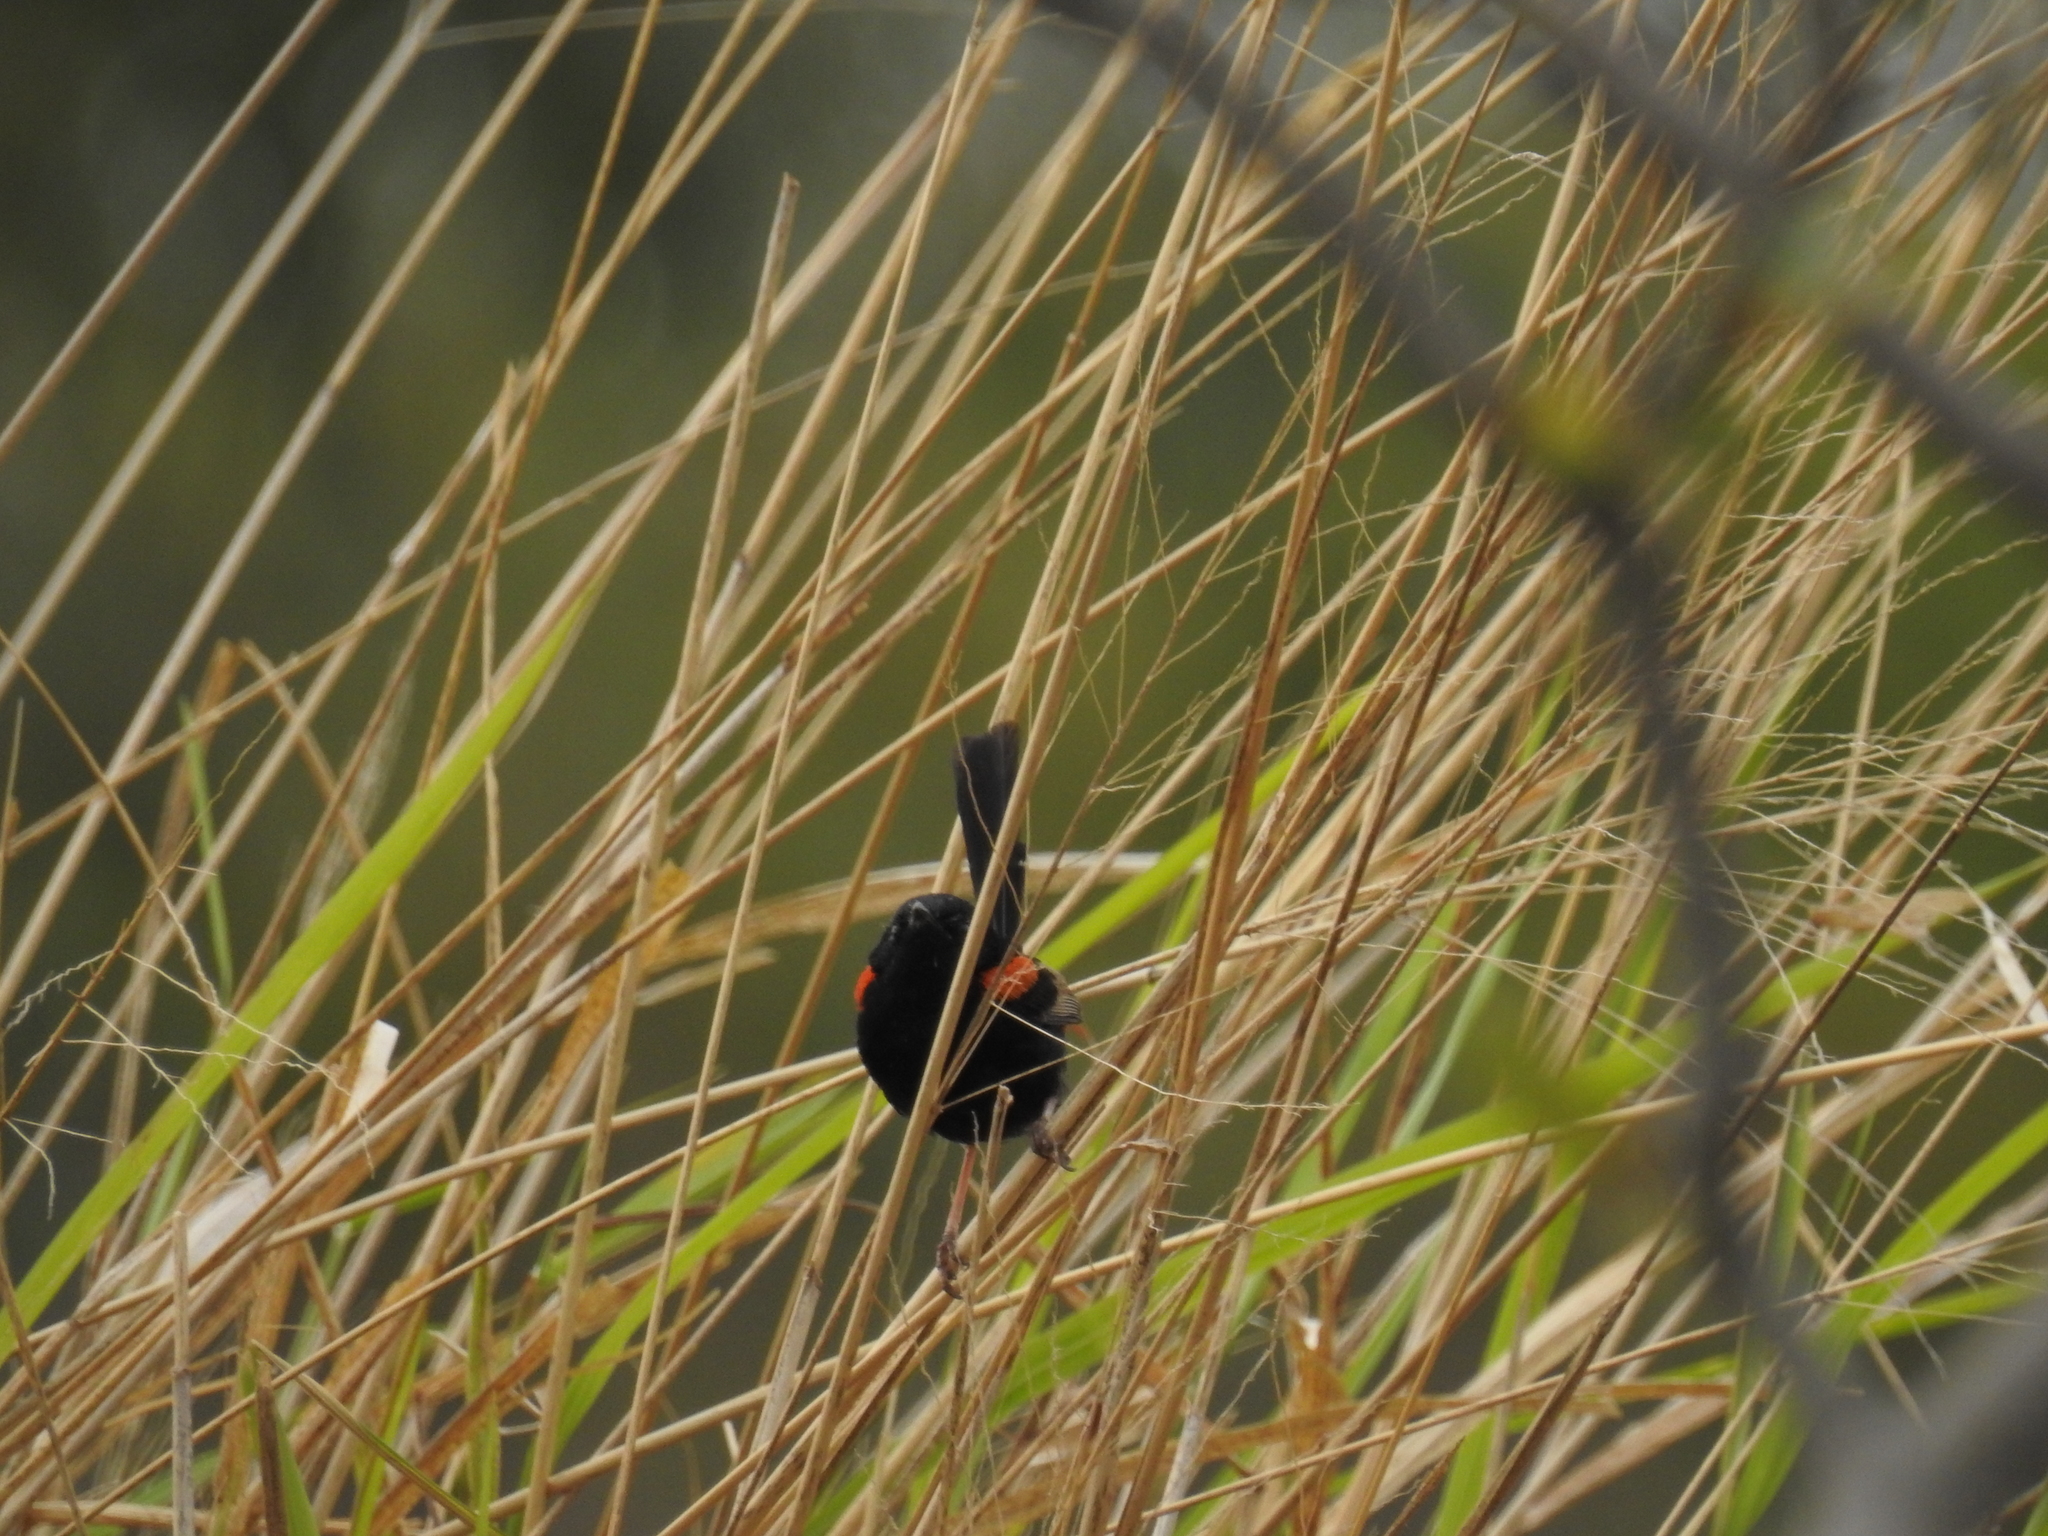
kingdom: Animalia
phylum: Chordata
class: Aves
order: Passeriformes
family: Maluridae
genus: Malurus
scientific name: Malurus melanocephalus
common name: Red-backed fairywren
